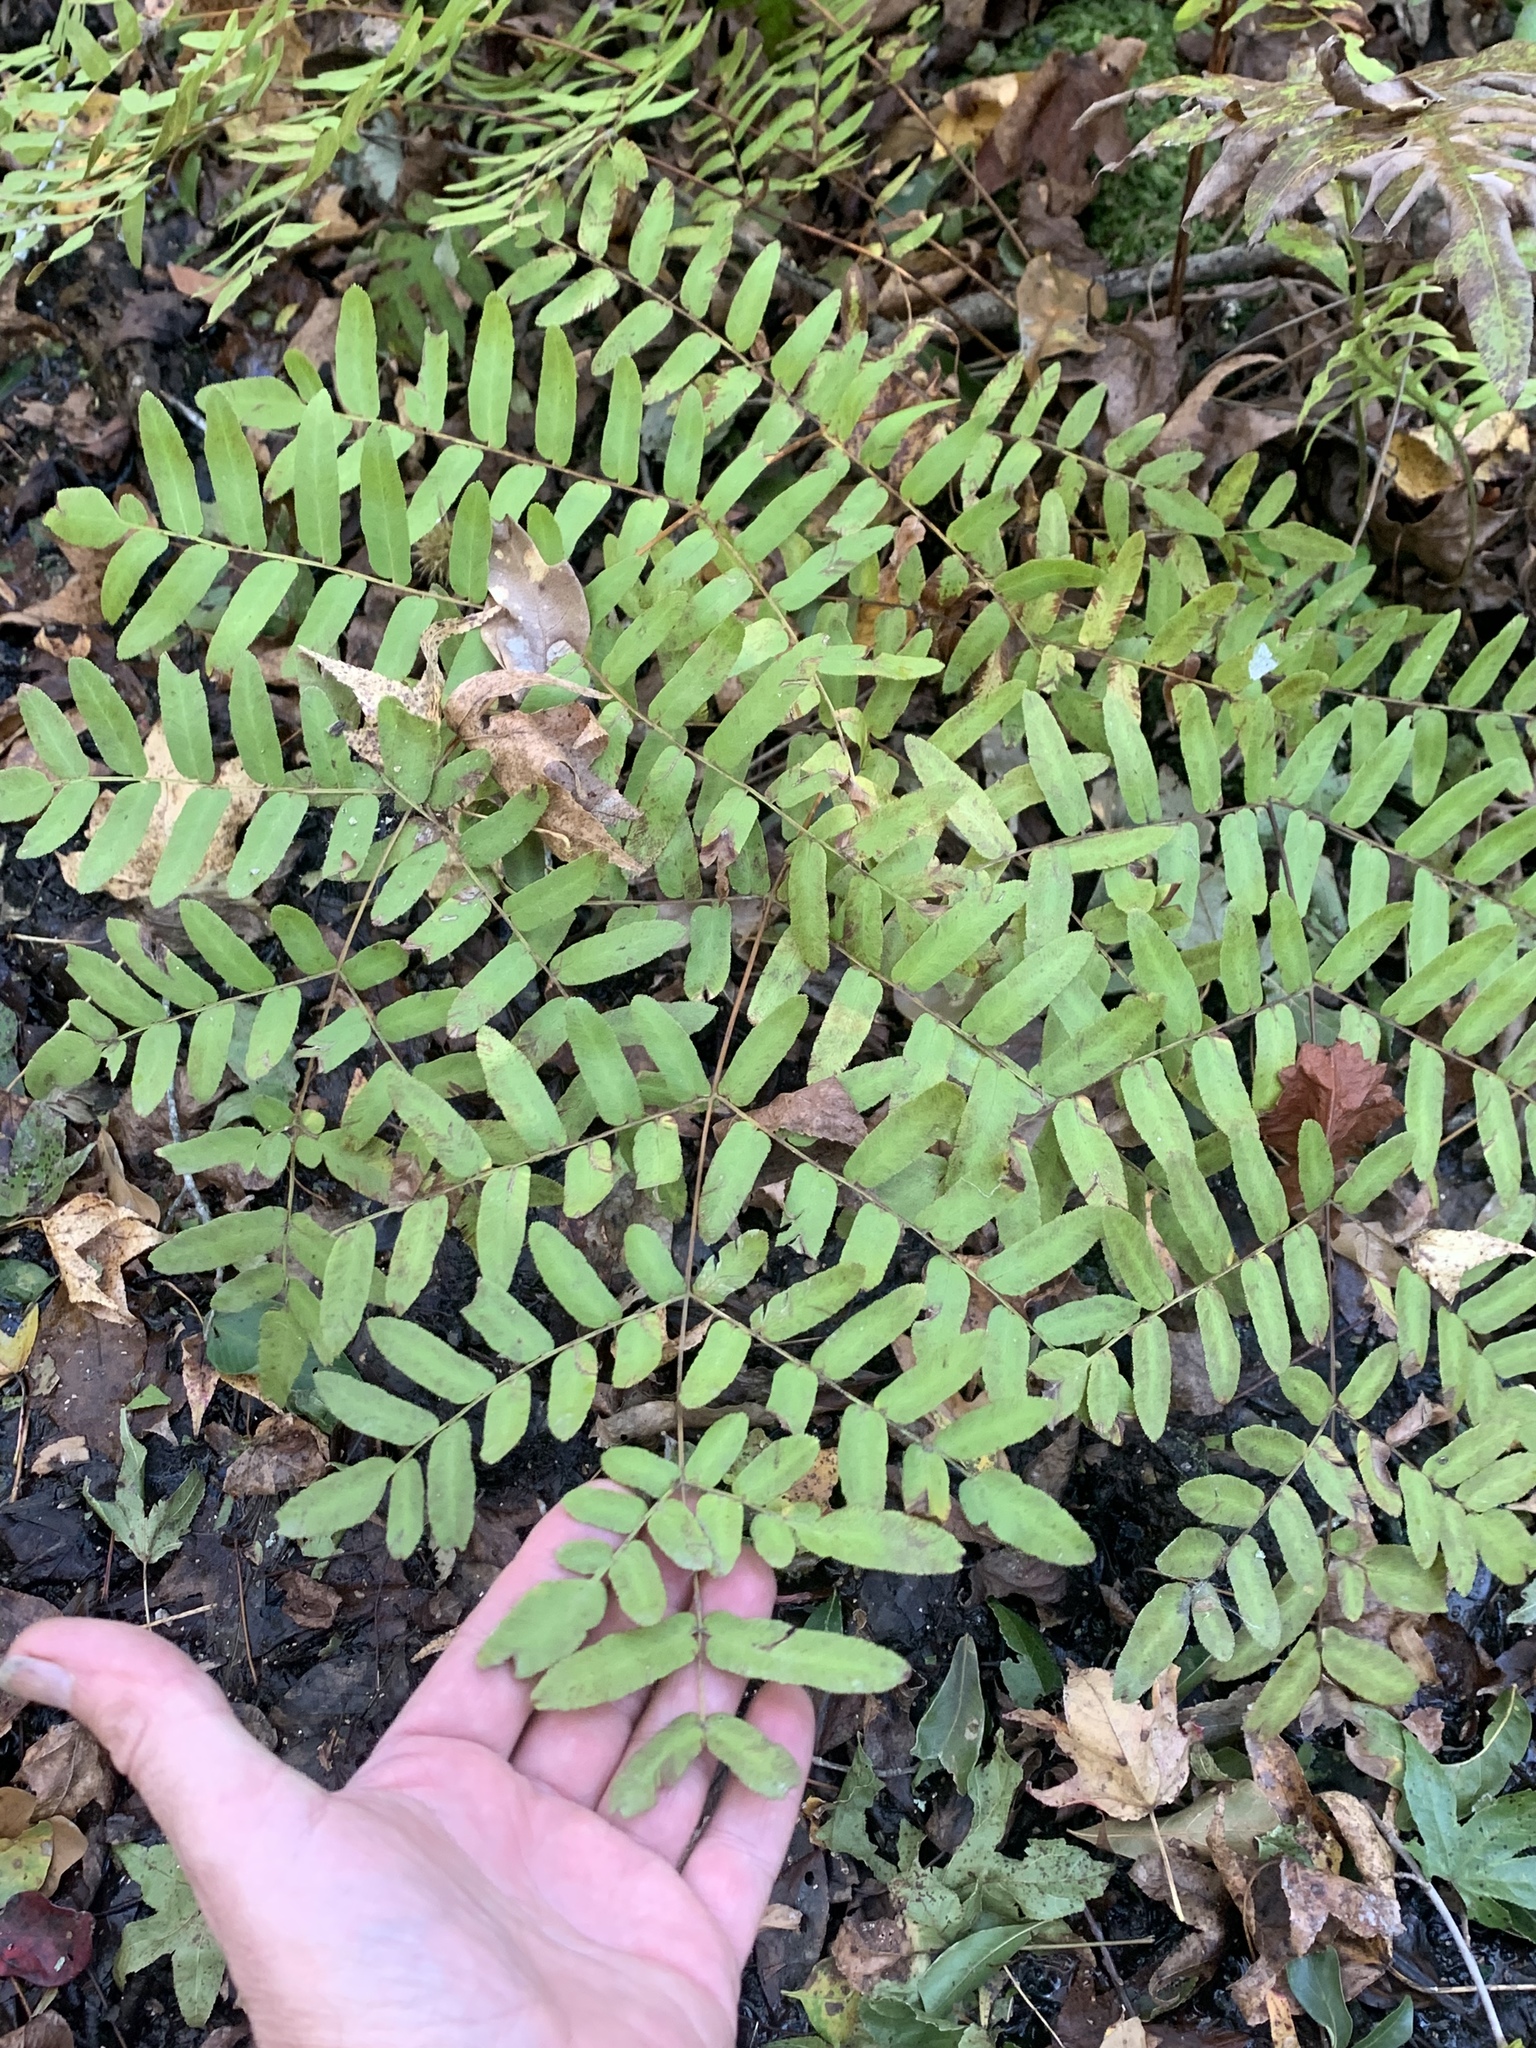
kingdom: Plantae
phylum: Tracheophyta
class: Polypodiopsida
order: Osmundales
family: Osmundaceae
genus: Osmunda
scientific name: Osmunda spectabilis
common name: American royal fern
